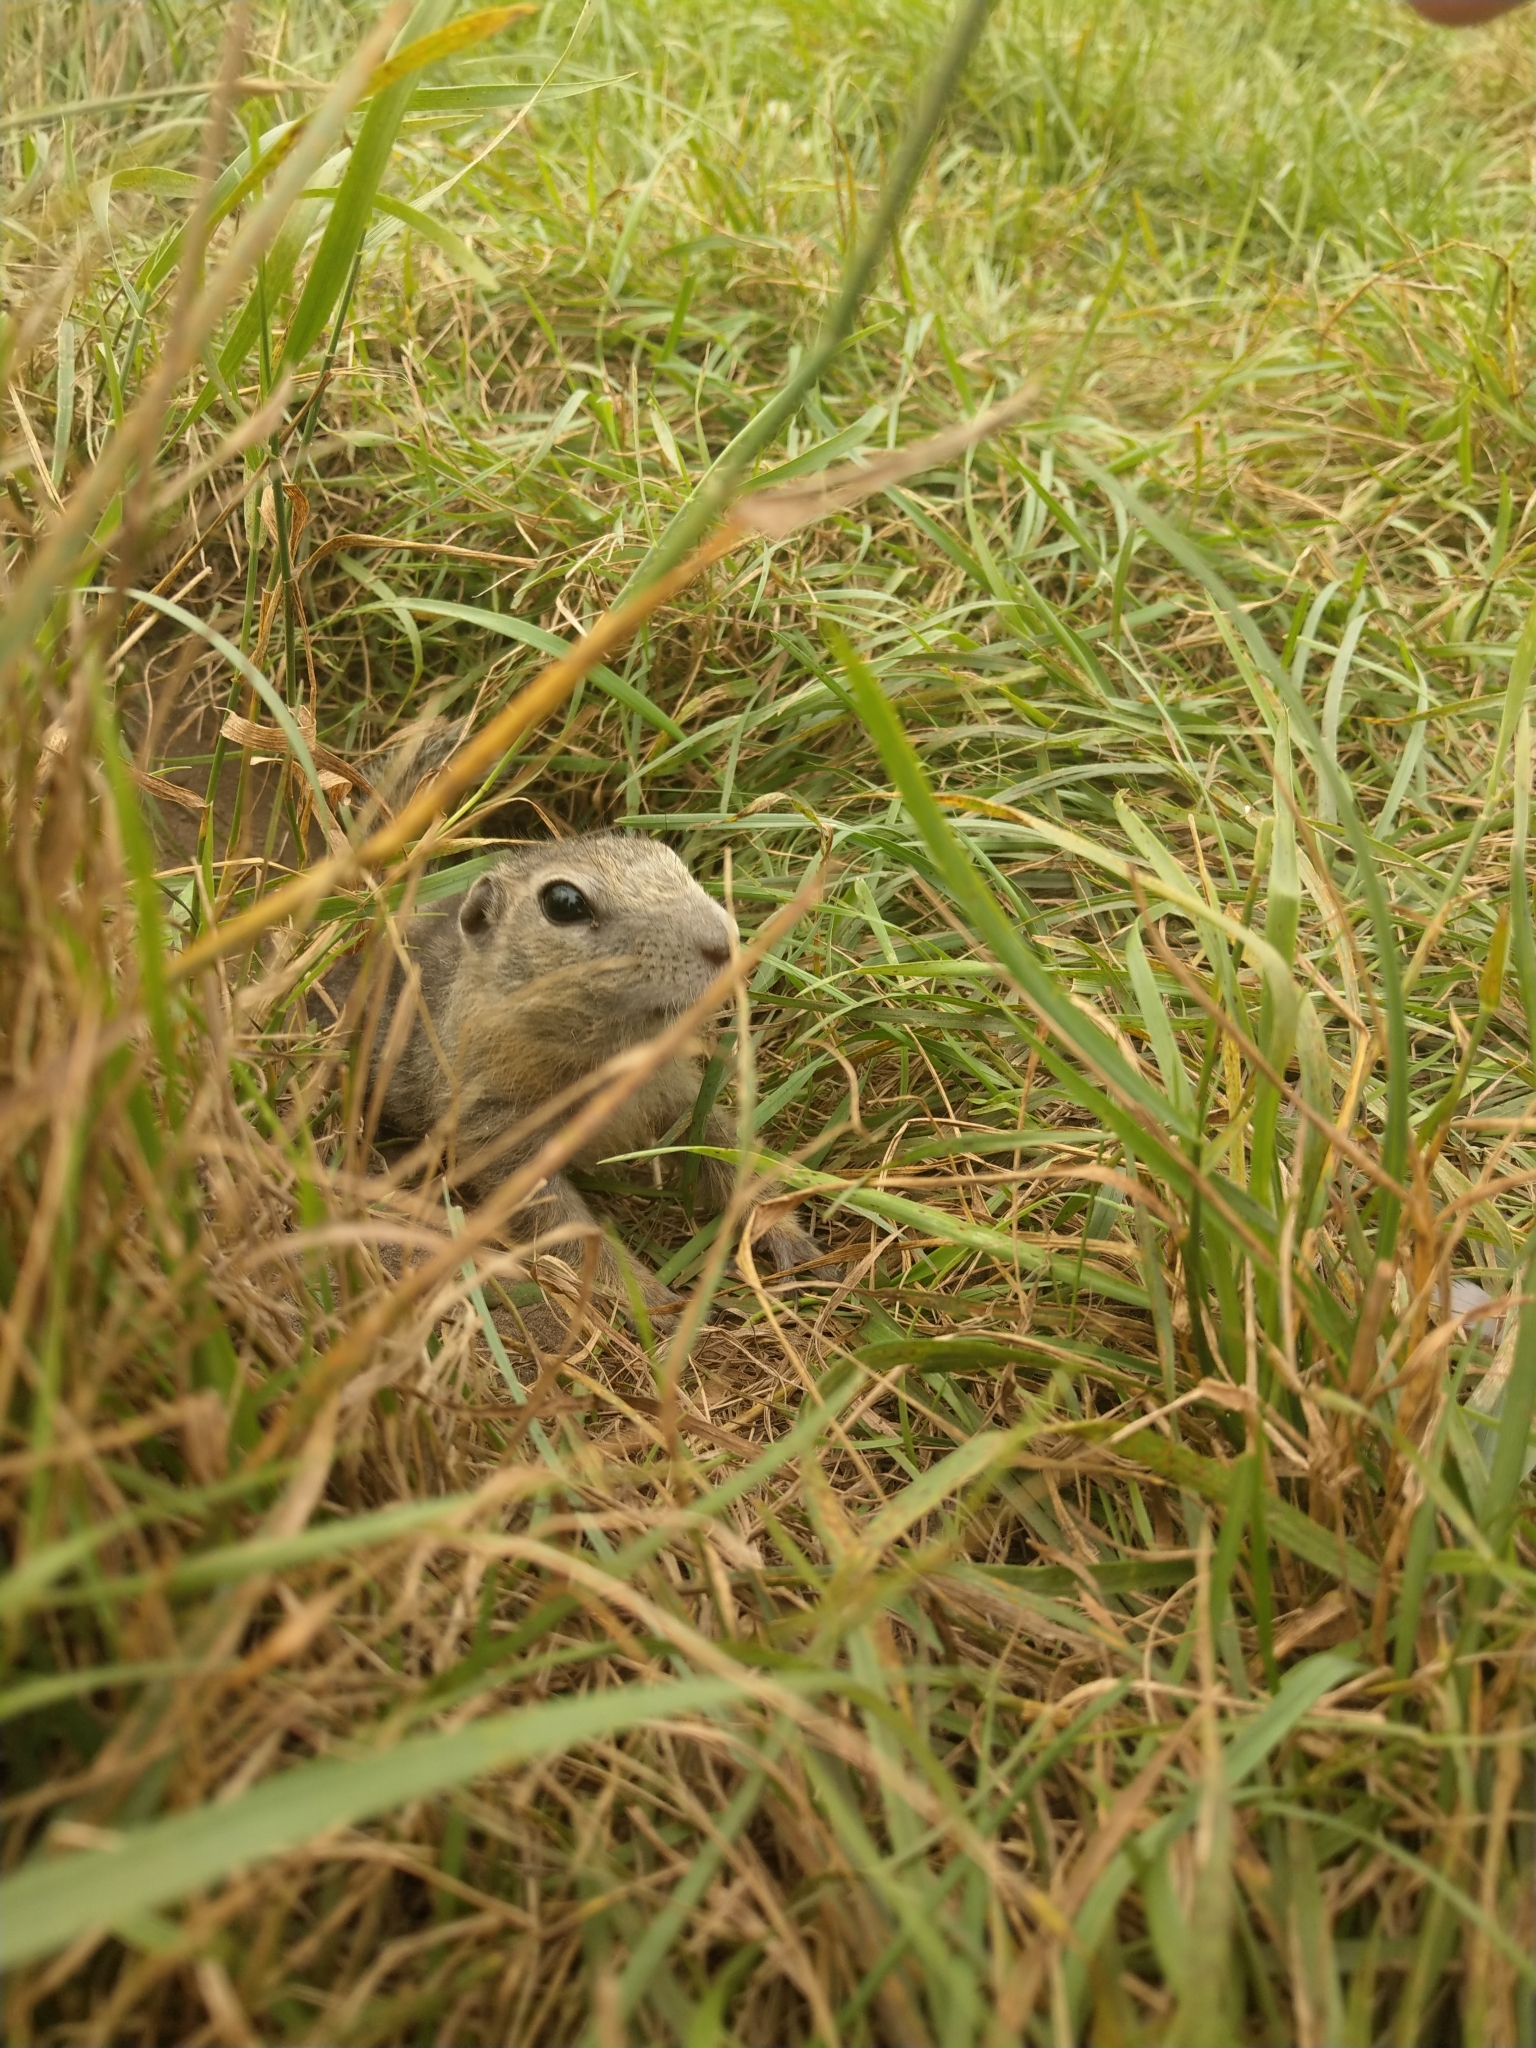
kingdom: Animalia
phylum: Chordata
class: Mammalia
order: Rodentia
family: Sciuridae
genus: Urocitellus
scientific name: Urocitellus undulatus
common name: Long-tailed ground squirrel
